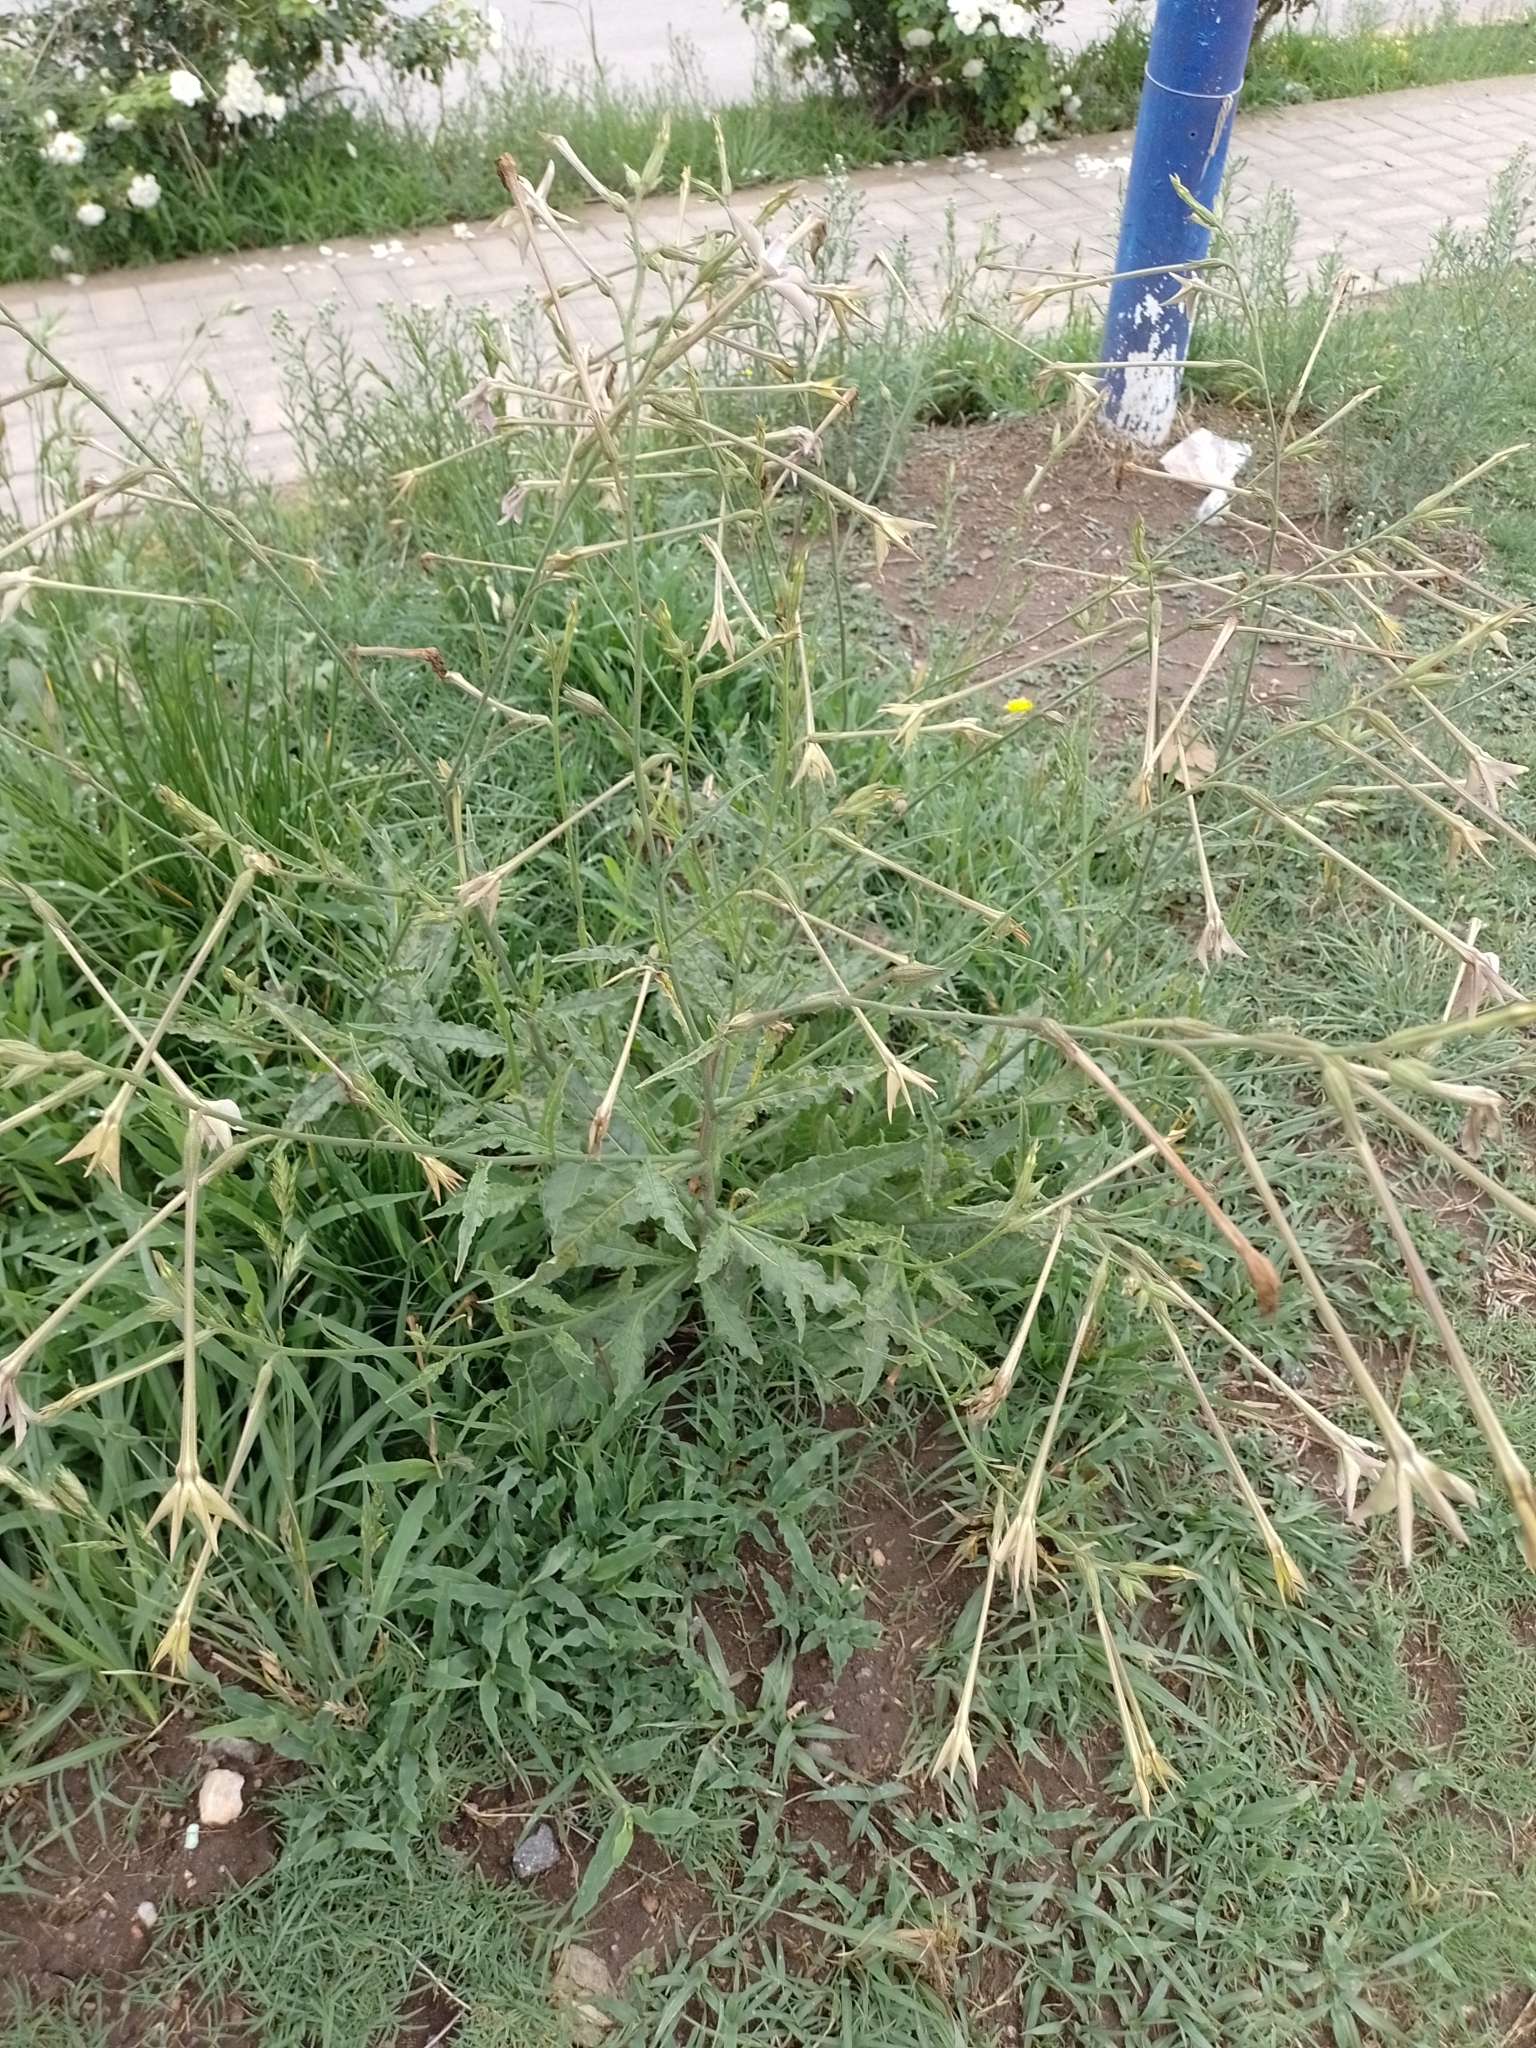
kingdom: Plantae
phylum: Tracheophyta
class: Magnoliopsida
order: Solanales
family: Solanaceae
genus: Nicotiana
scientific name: Nicotiana longiflora
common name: Long-flowered tobacco
